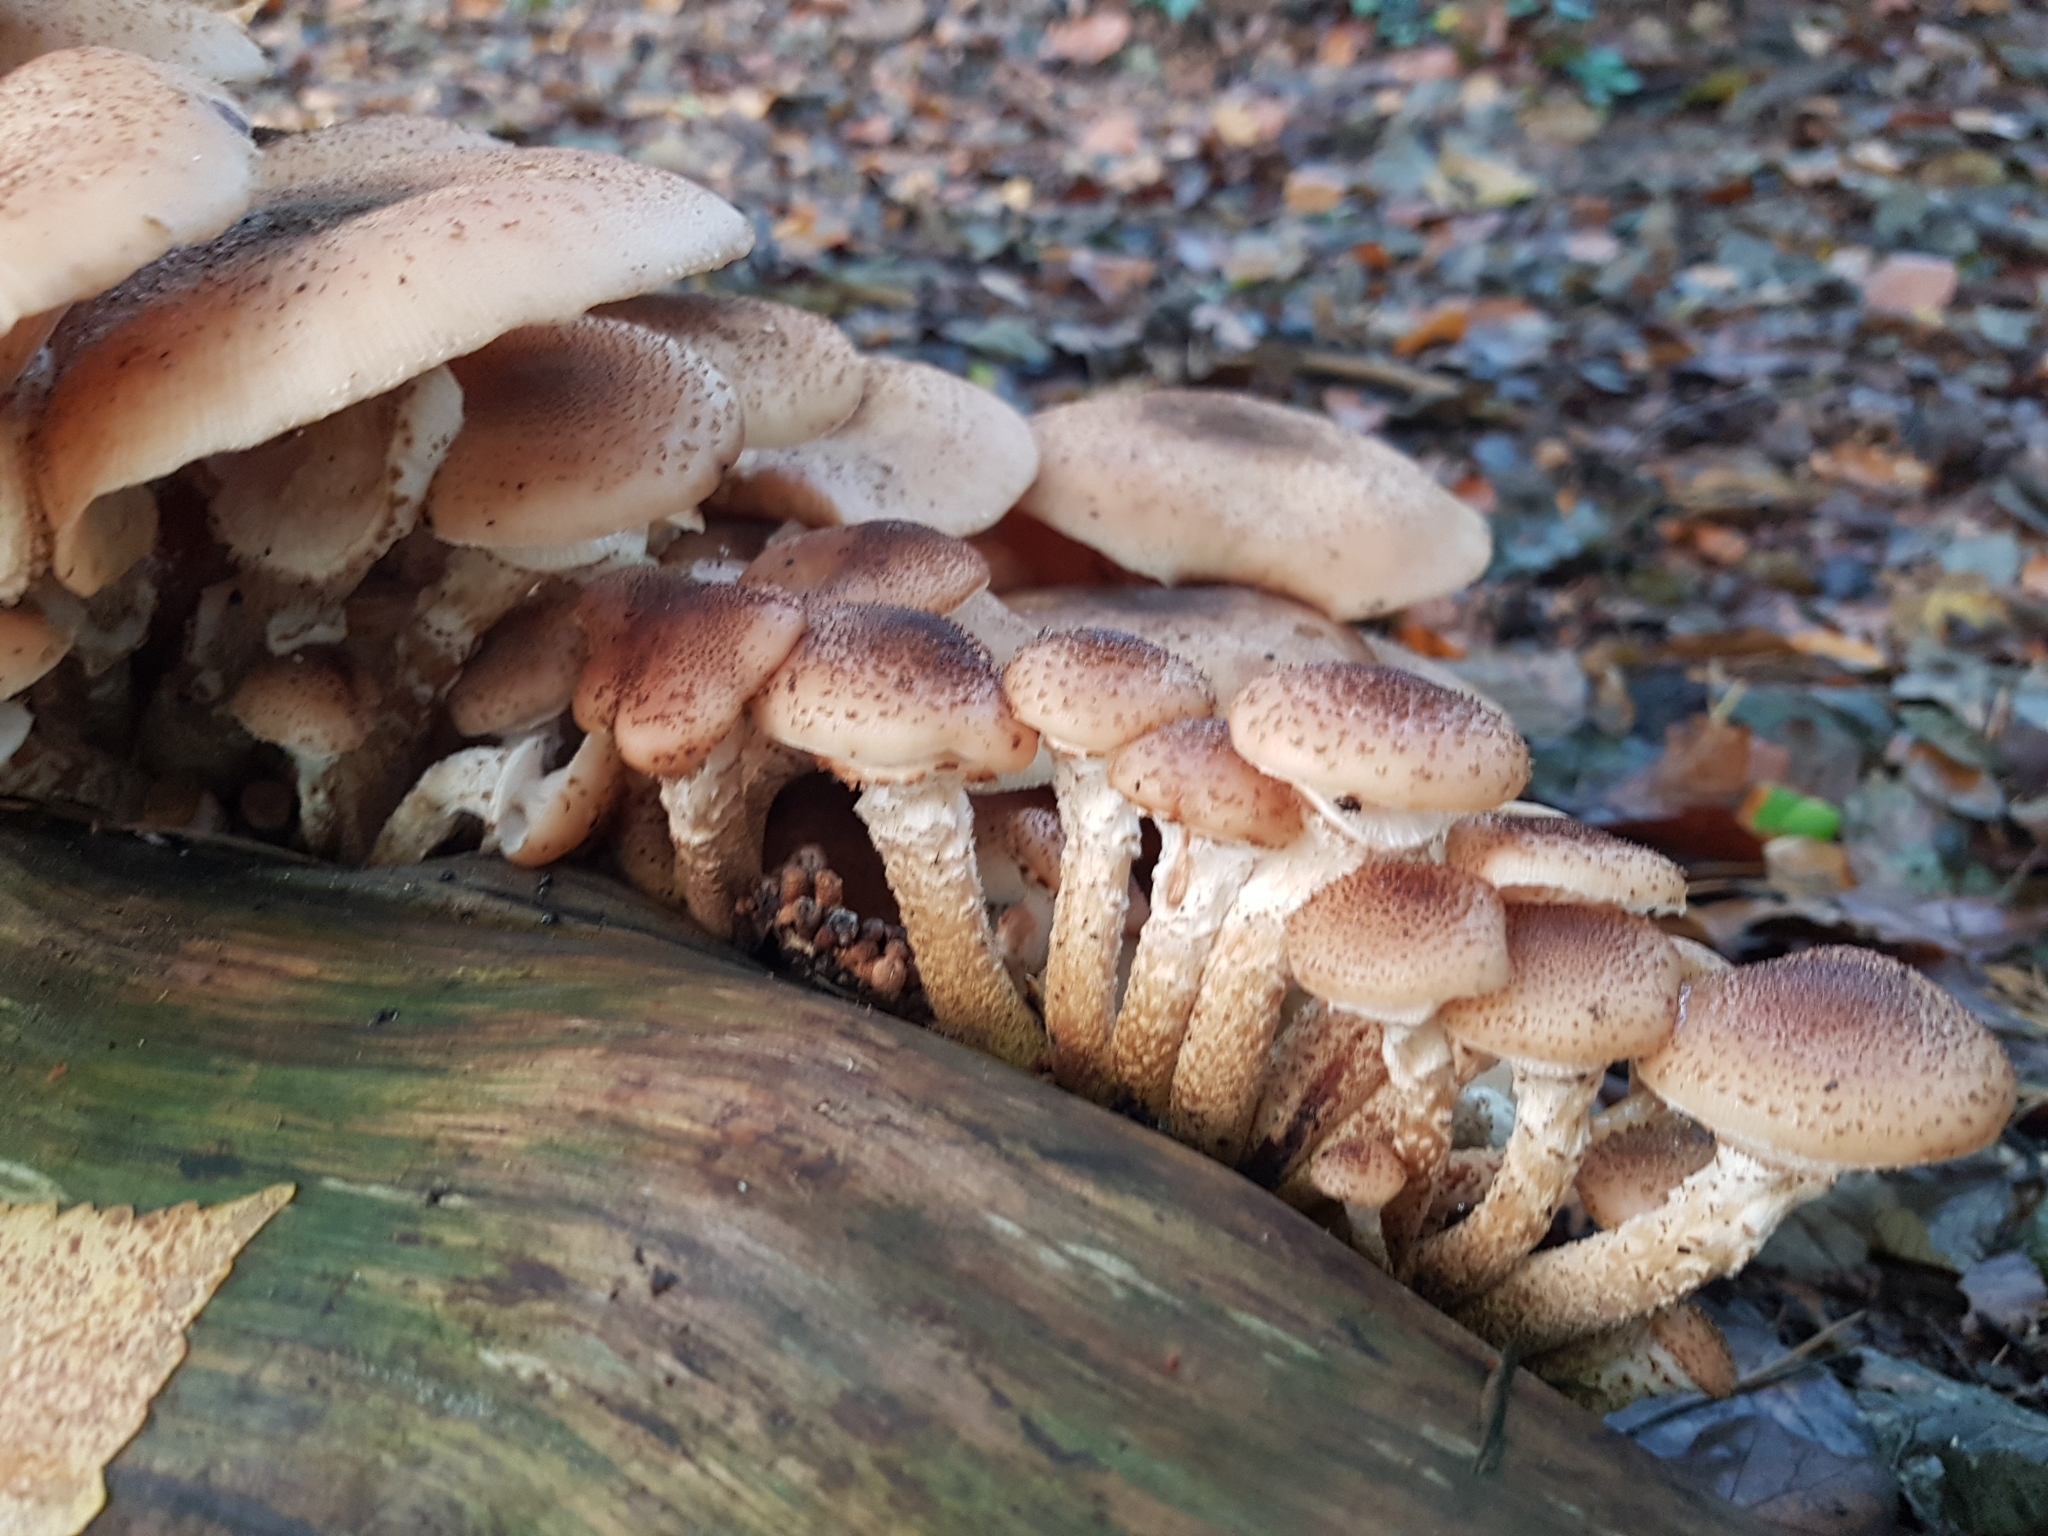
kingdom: Fungi
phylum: Basidiomycota
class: Agaricomycetes
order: Agaricales
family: Physalacriaceae
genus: Armillaria
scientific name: Armillaria ostoyae
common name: Dark honey fungus
